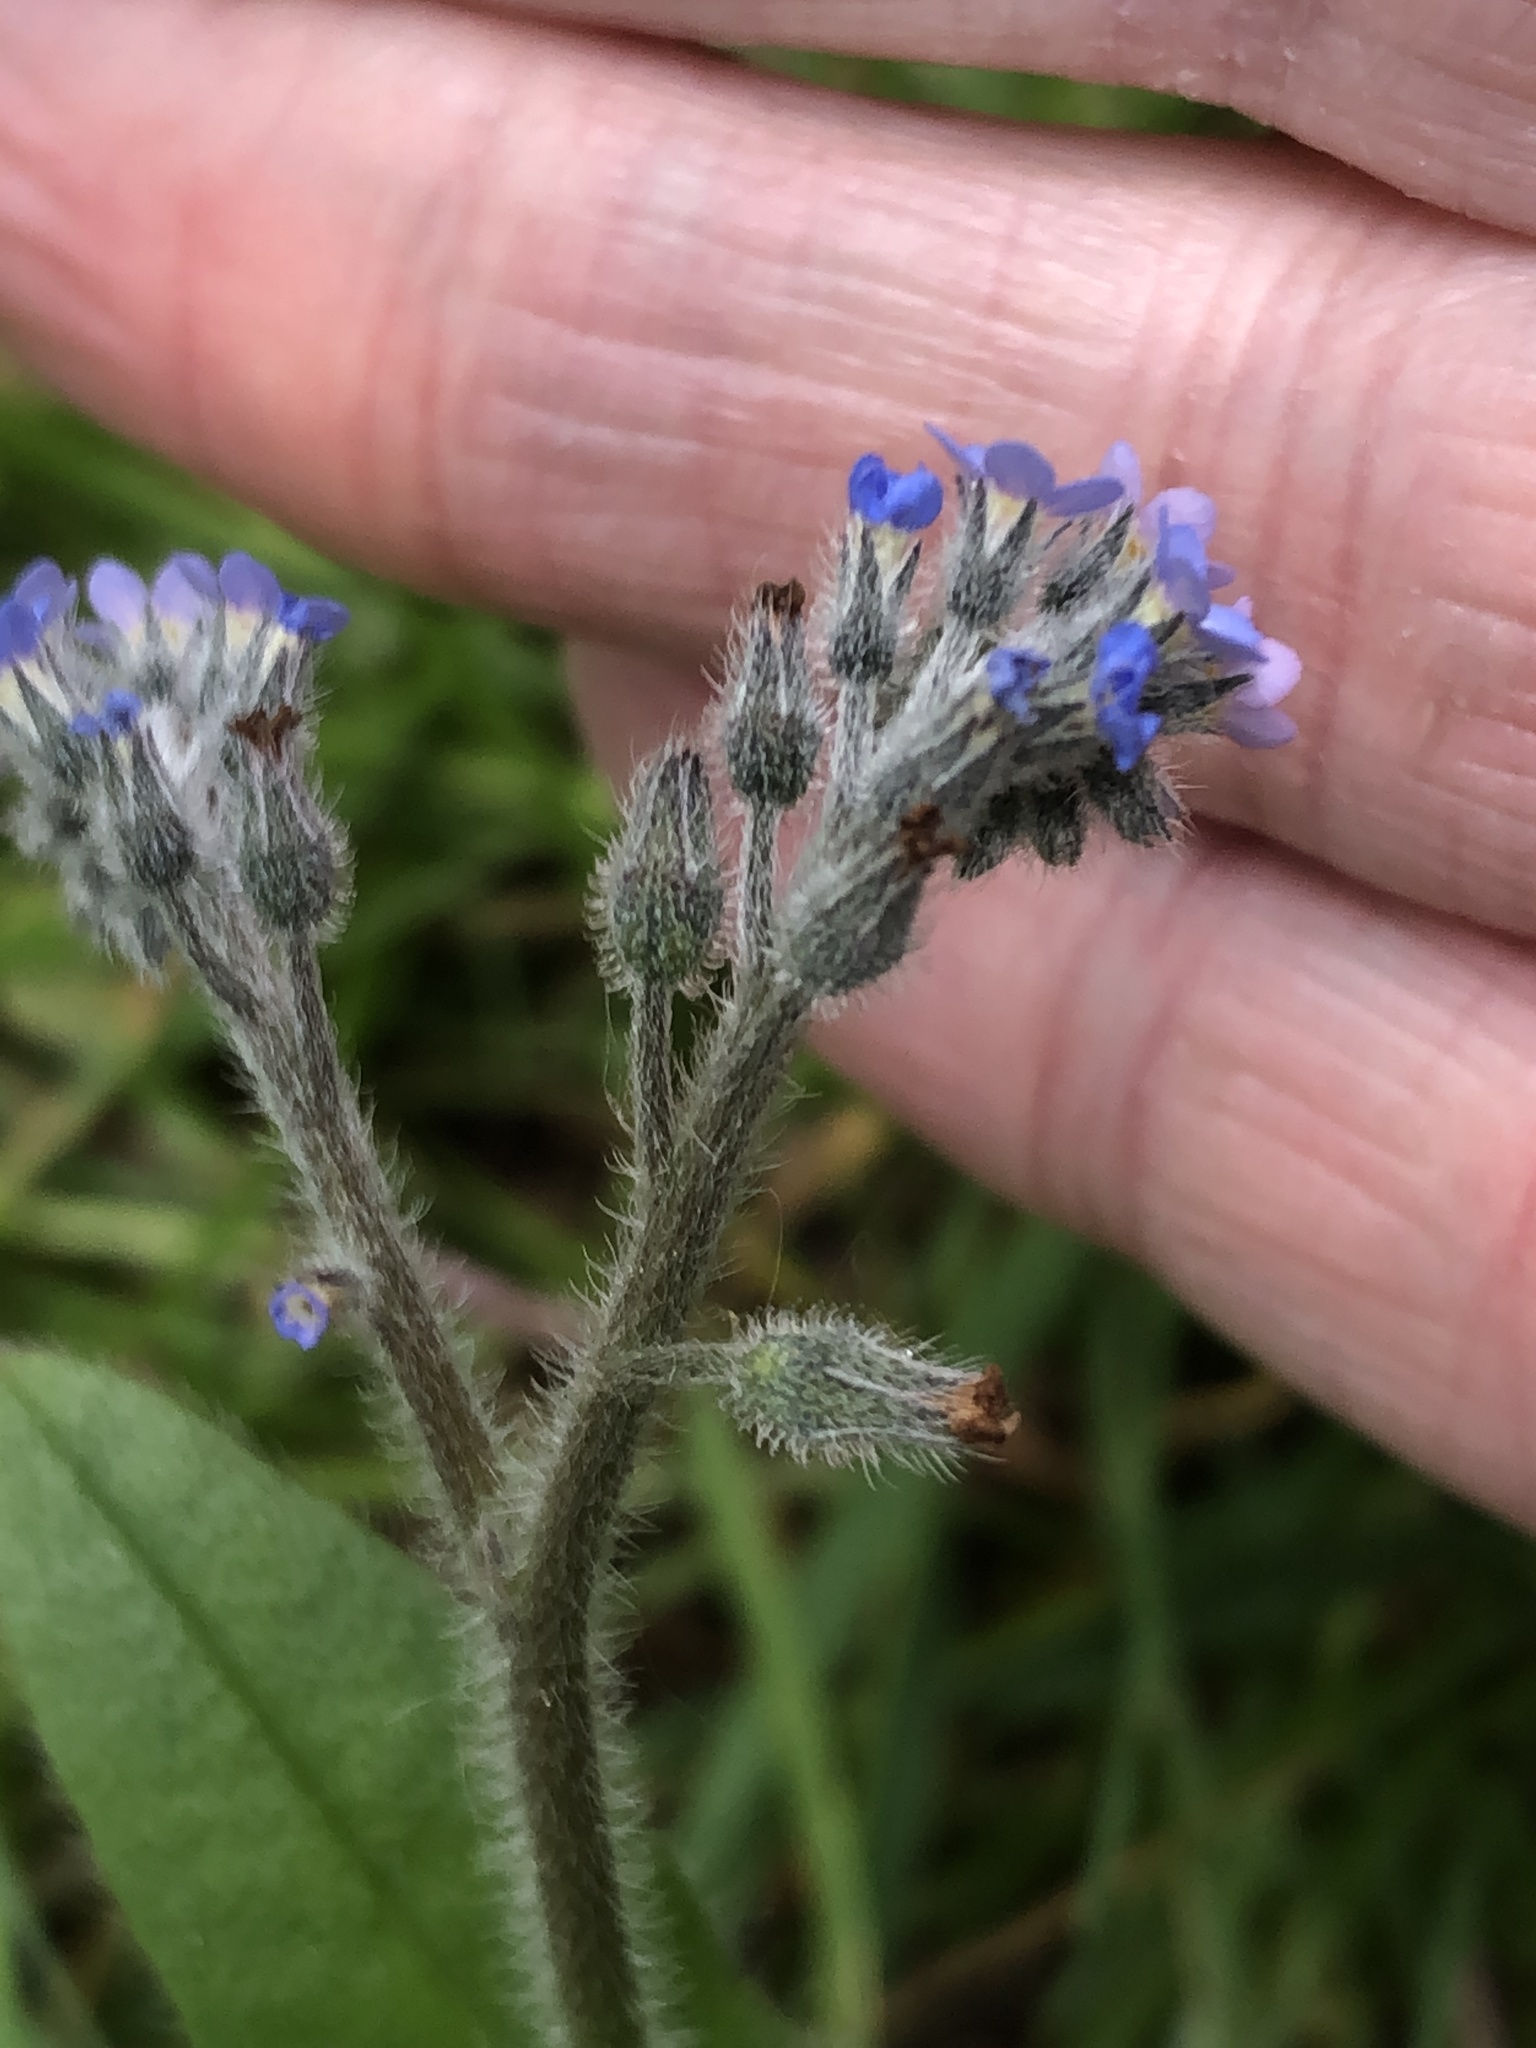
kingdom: Plantae
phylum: Tracheophyta
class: Magnoliopsida
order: Boraginales
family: Boraginaceae
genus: Myosotis
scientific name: Myosotis arvensis
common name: Field forget-me-not
